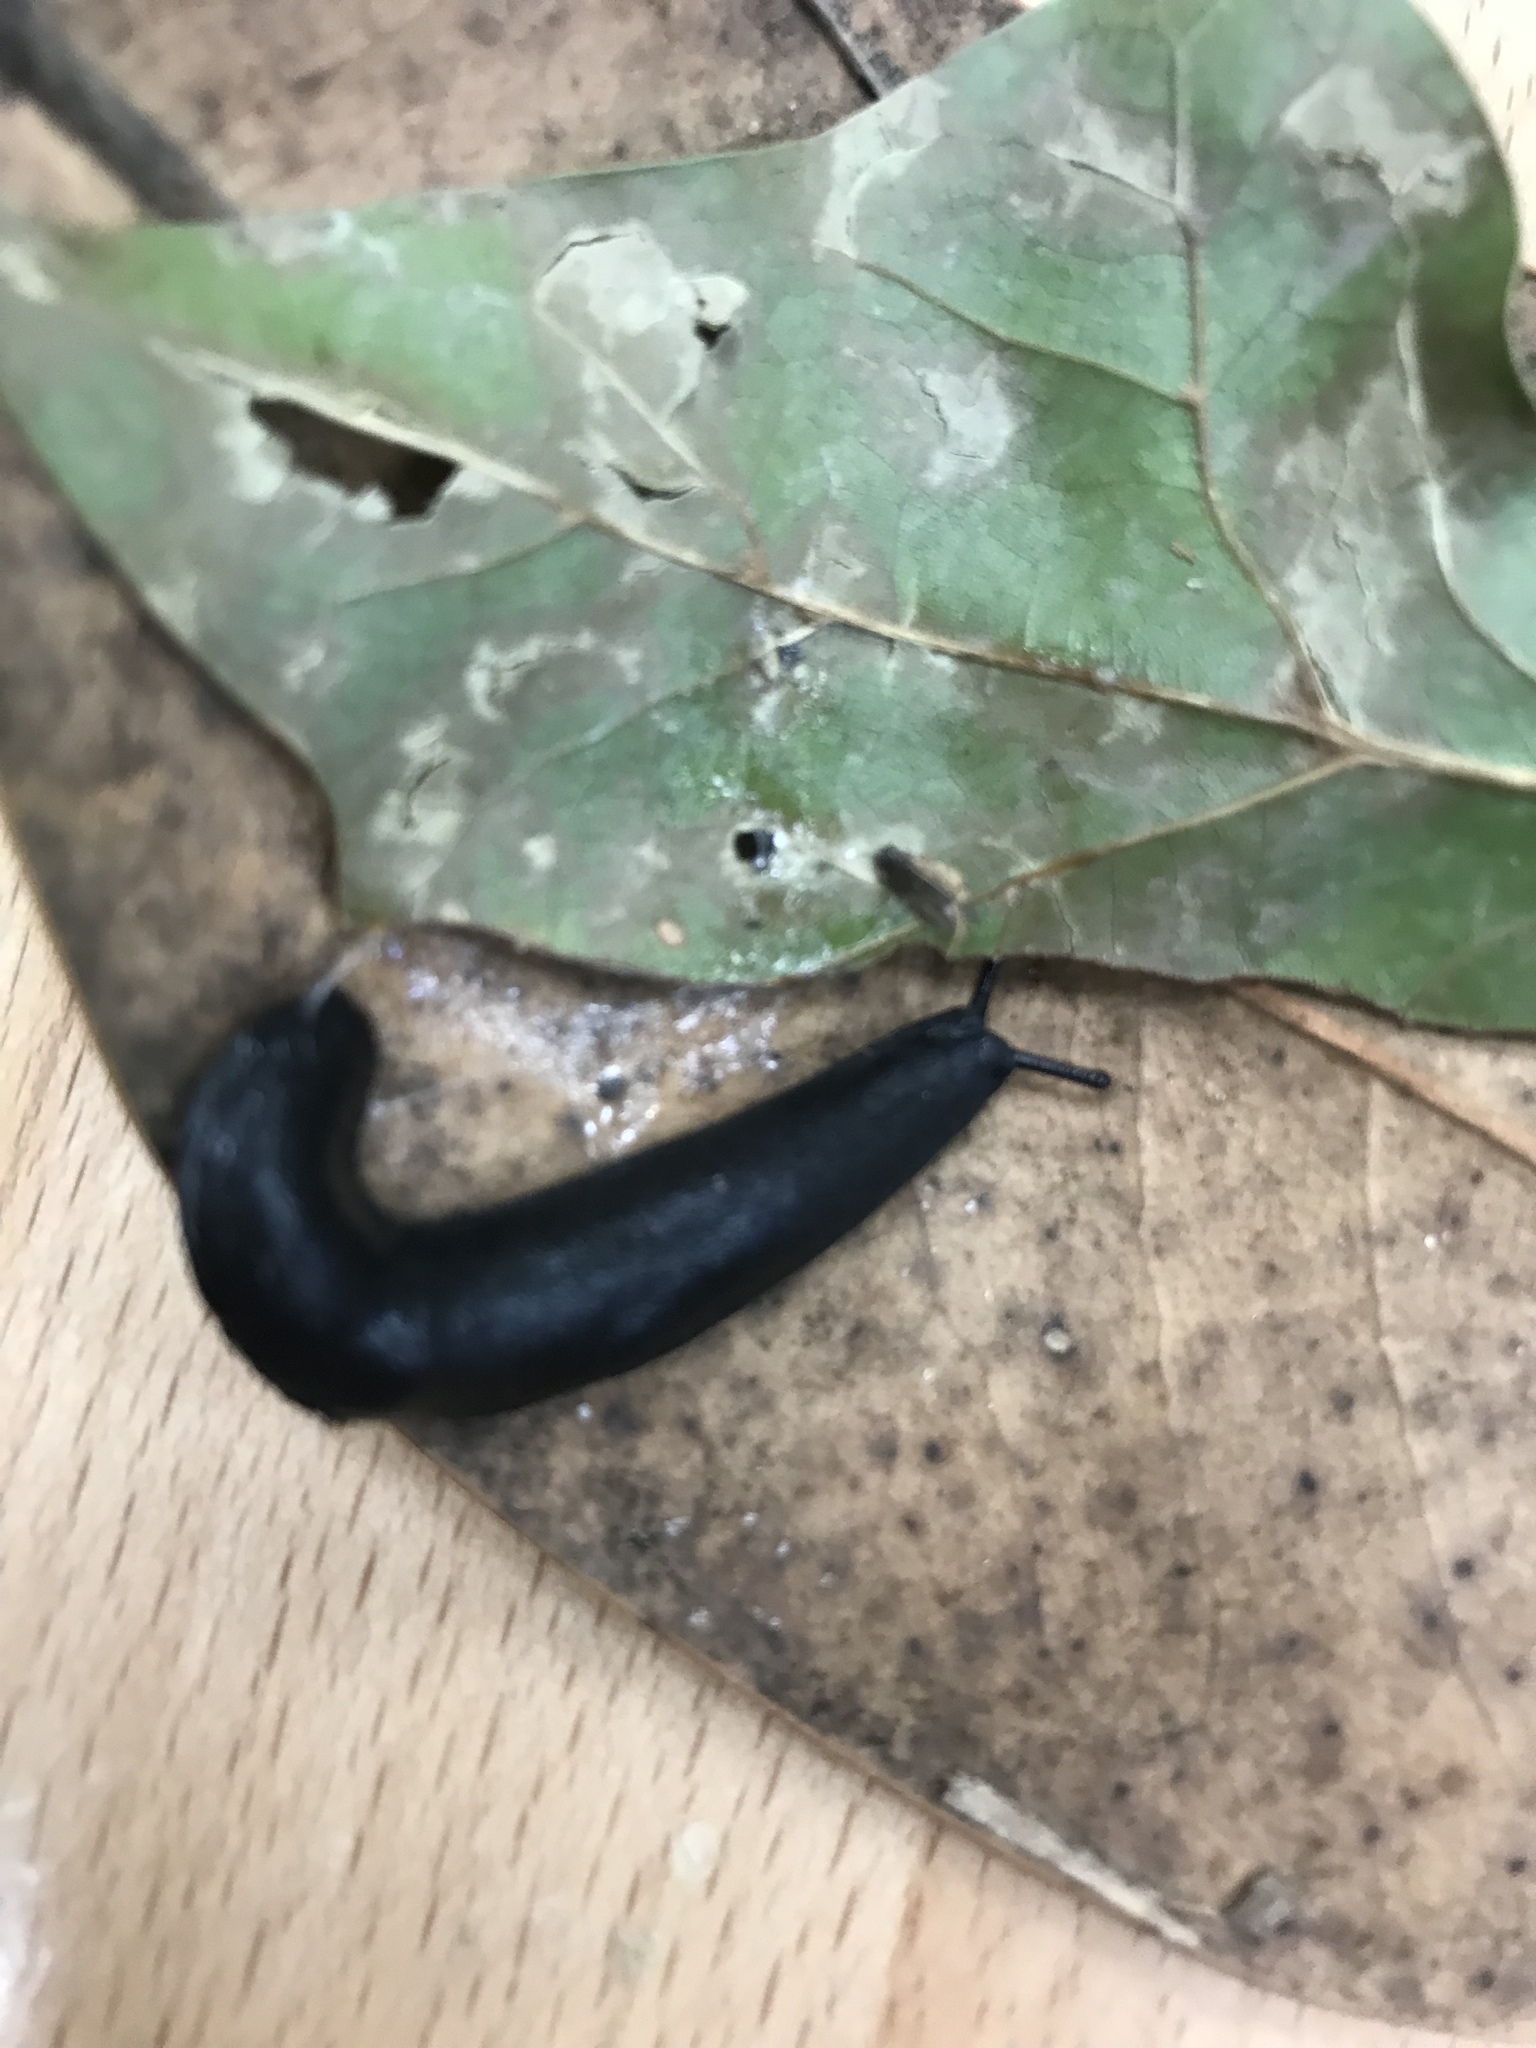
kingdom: Animalia
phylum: Mollusca
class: Gastropoda
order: Systellommatophora
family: Veronicellidae
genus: Belocaulus
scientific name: Belocaulus angustipes
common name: Black velvet leatherleaf slug
